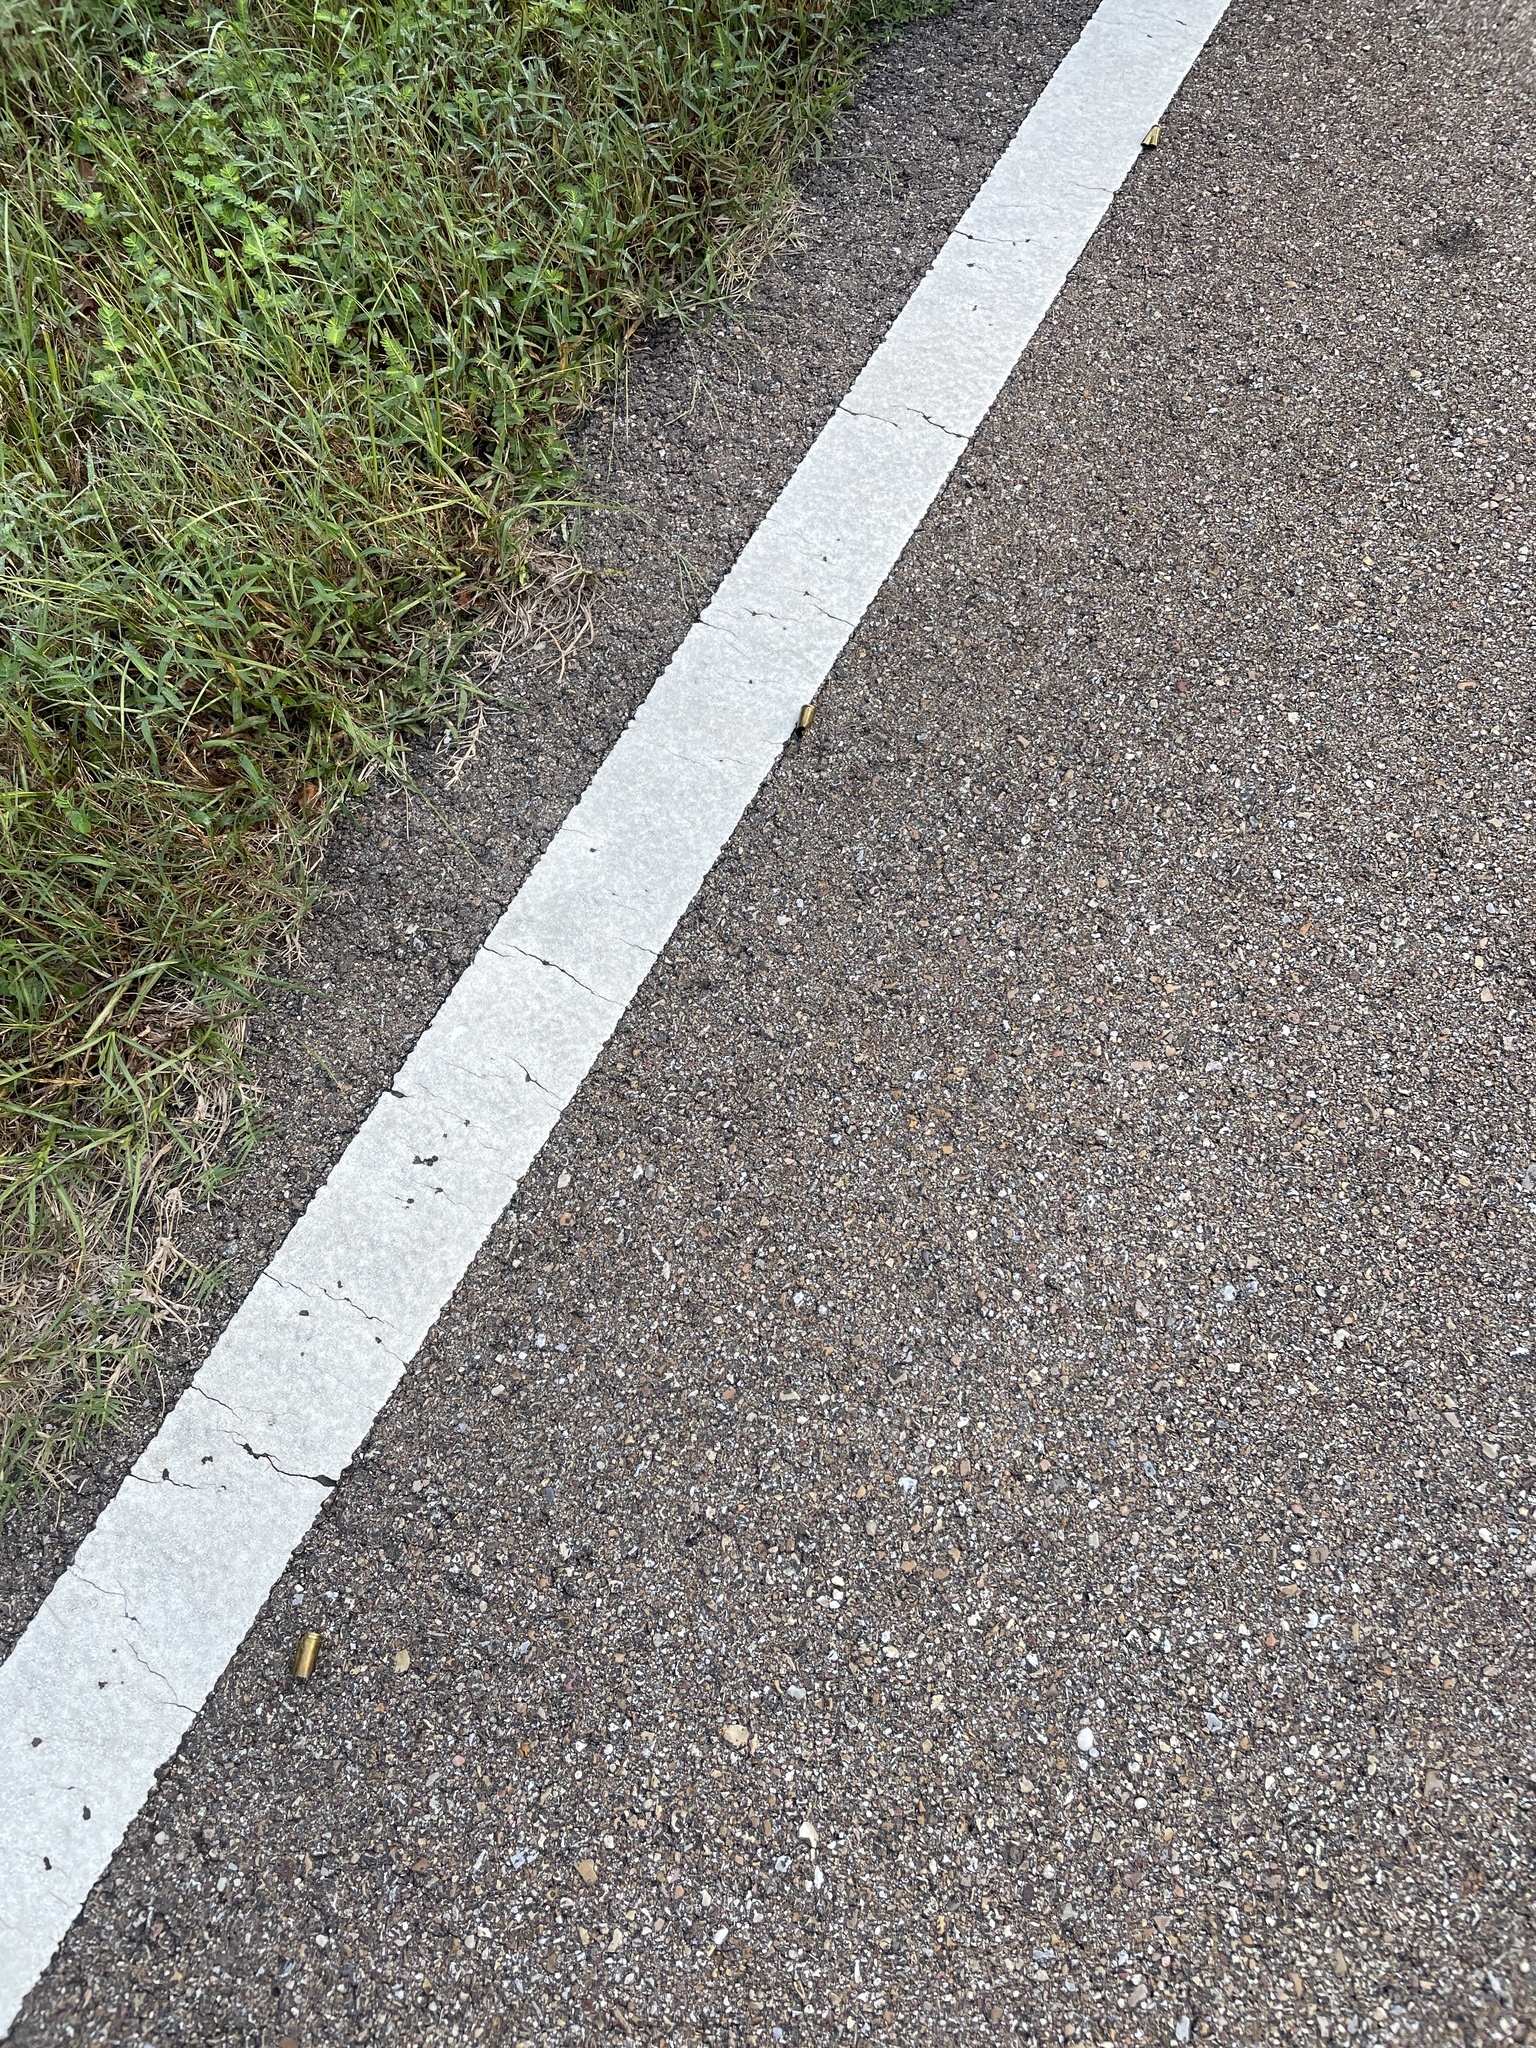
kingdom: Animalia
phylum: Chordata
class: Squamata
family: Viperidae
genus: Crotalus
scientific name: Crotalus horridus
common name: Timber rattlesnake
